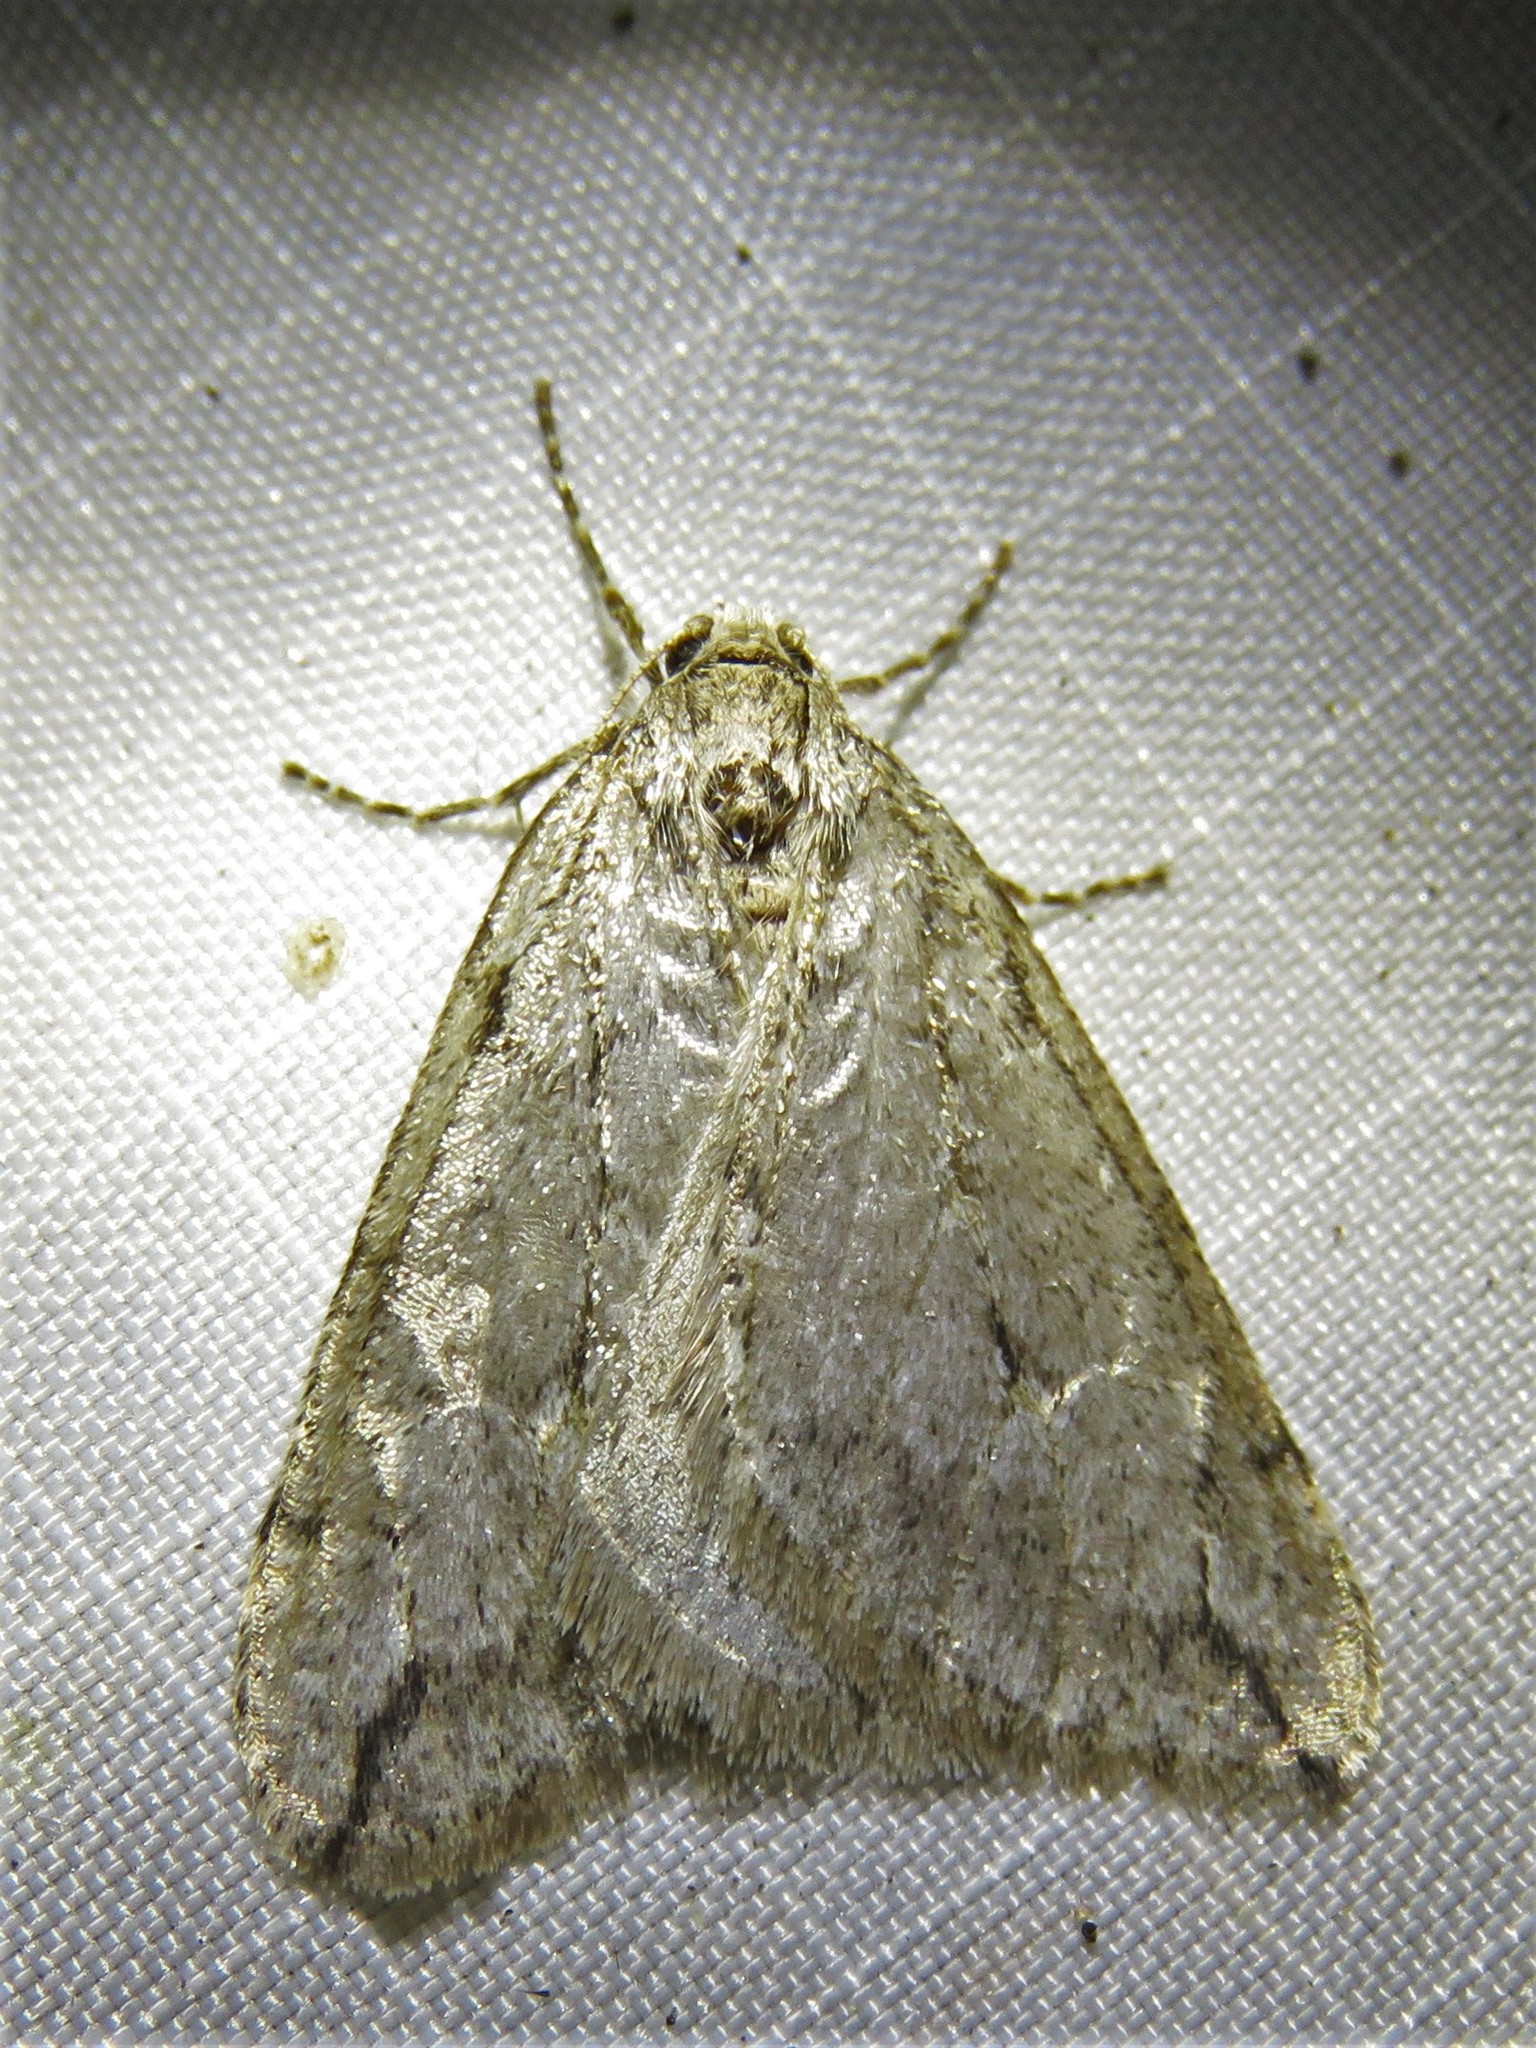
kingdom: Animalia
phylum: Arthropoda
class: Insecta
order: Lepidoptera
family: Geometridae
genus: Paleacrita
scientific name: Paleacrita vernata
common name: Spring cankerworm
